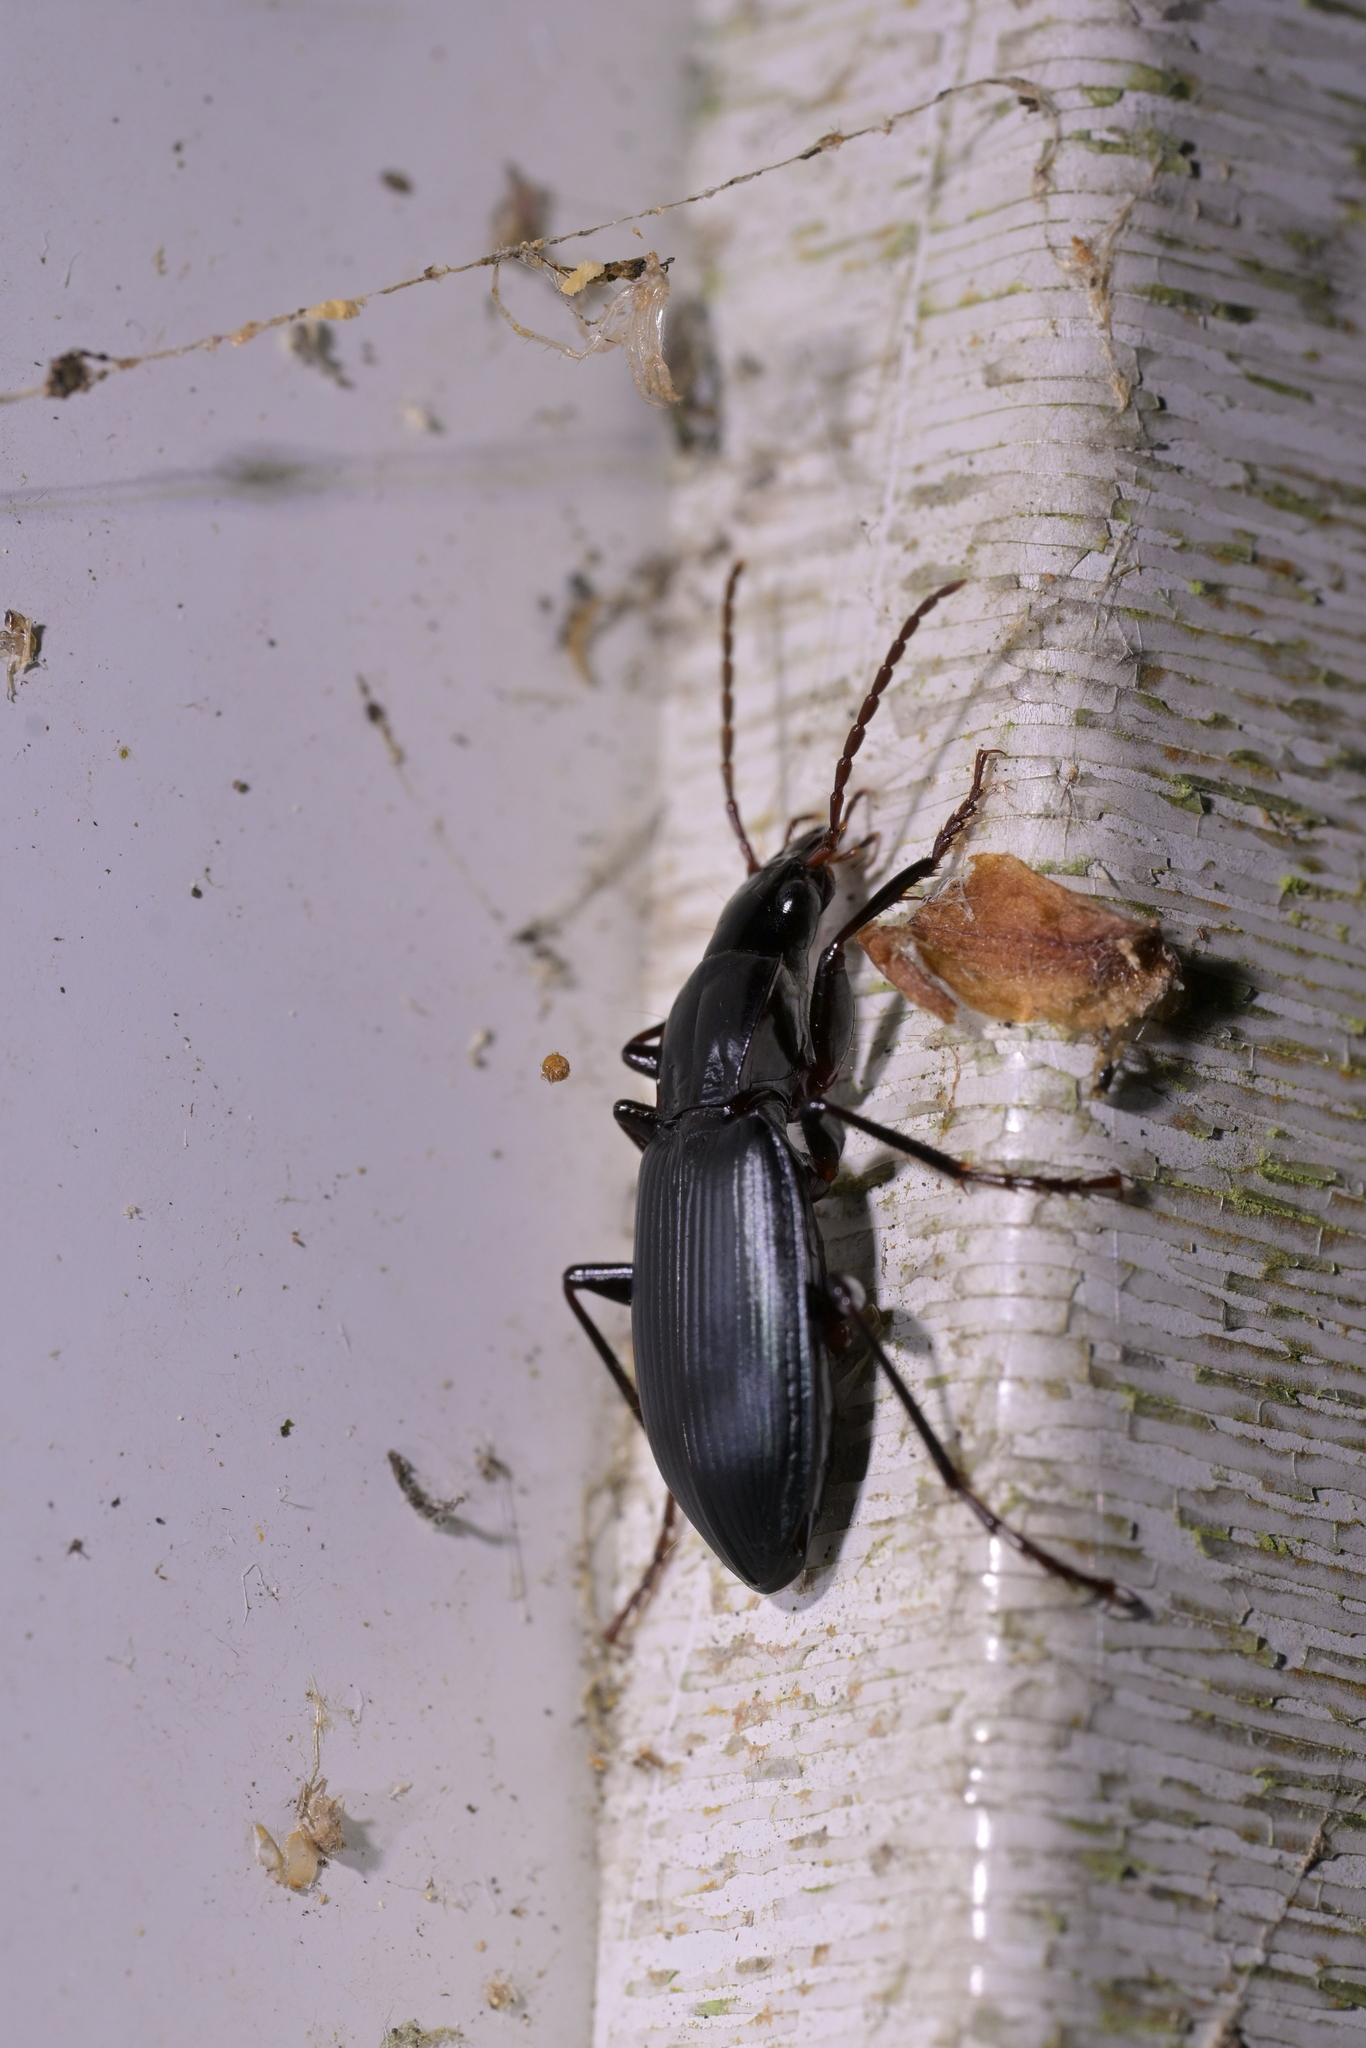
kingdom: Animalia
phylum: Arthropoda
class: Insecta
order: Coleoptera
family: Carabidae
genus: Laemostenus
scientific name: Laemostenus complanatus
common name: Cosmopolitan ground beetle
